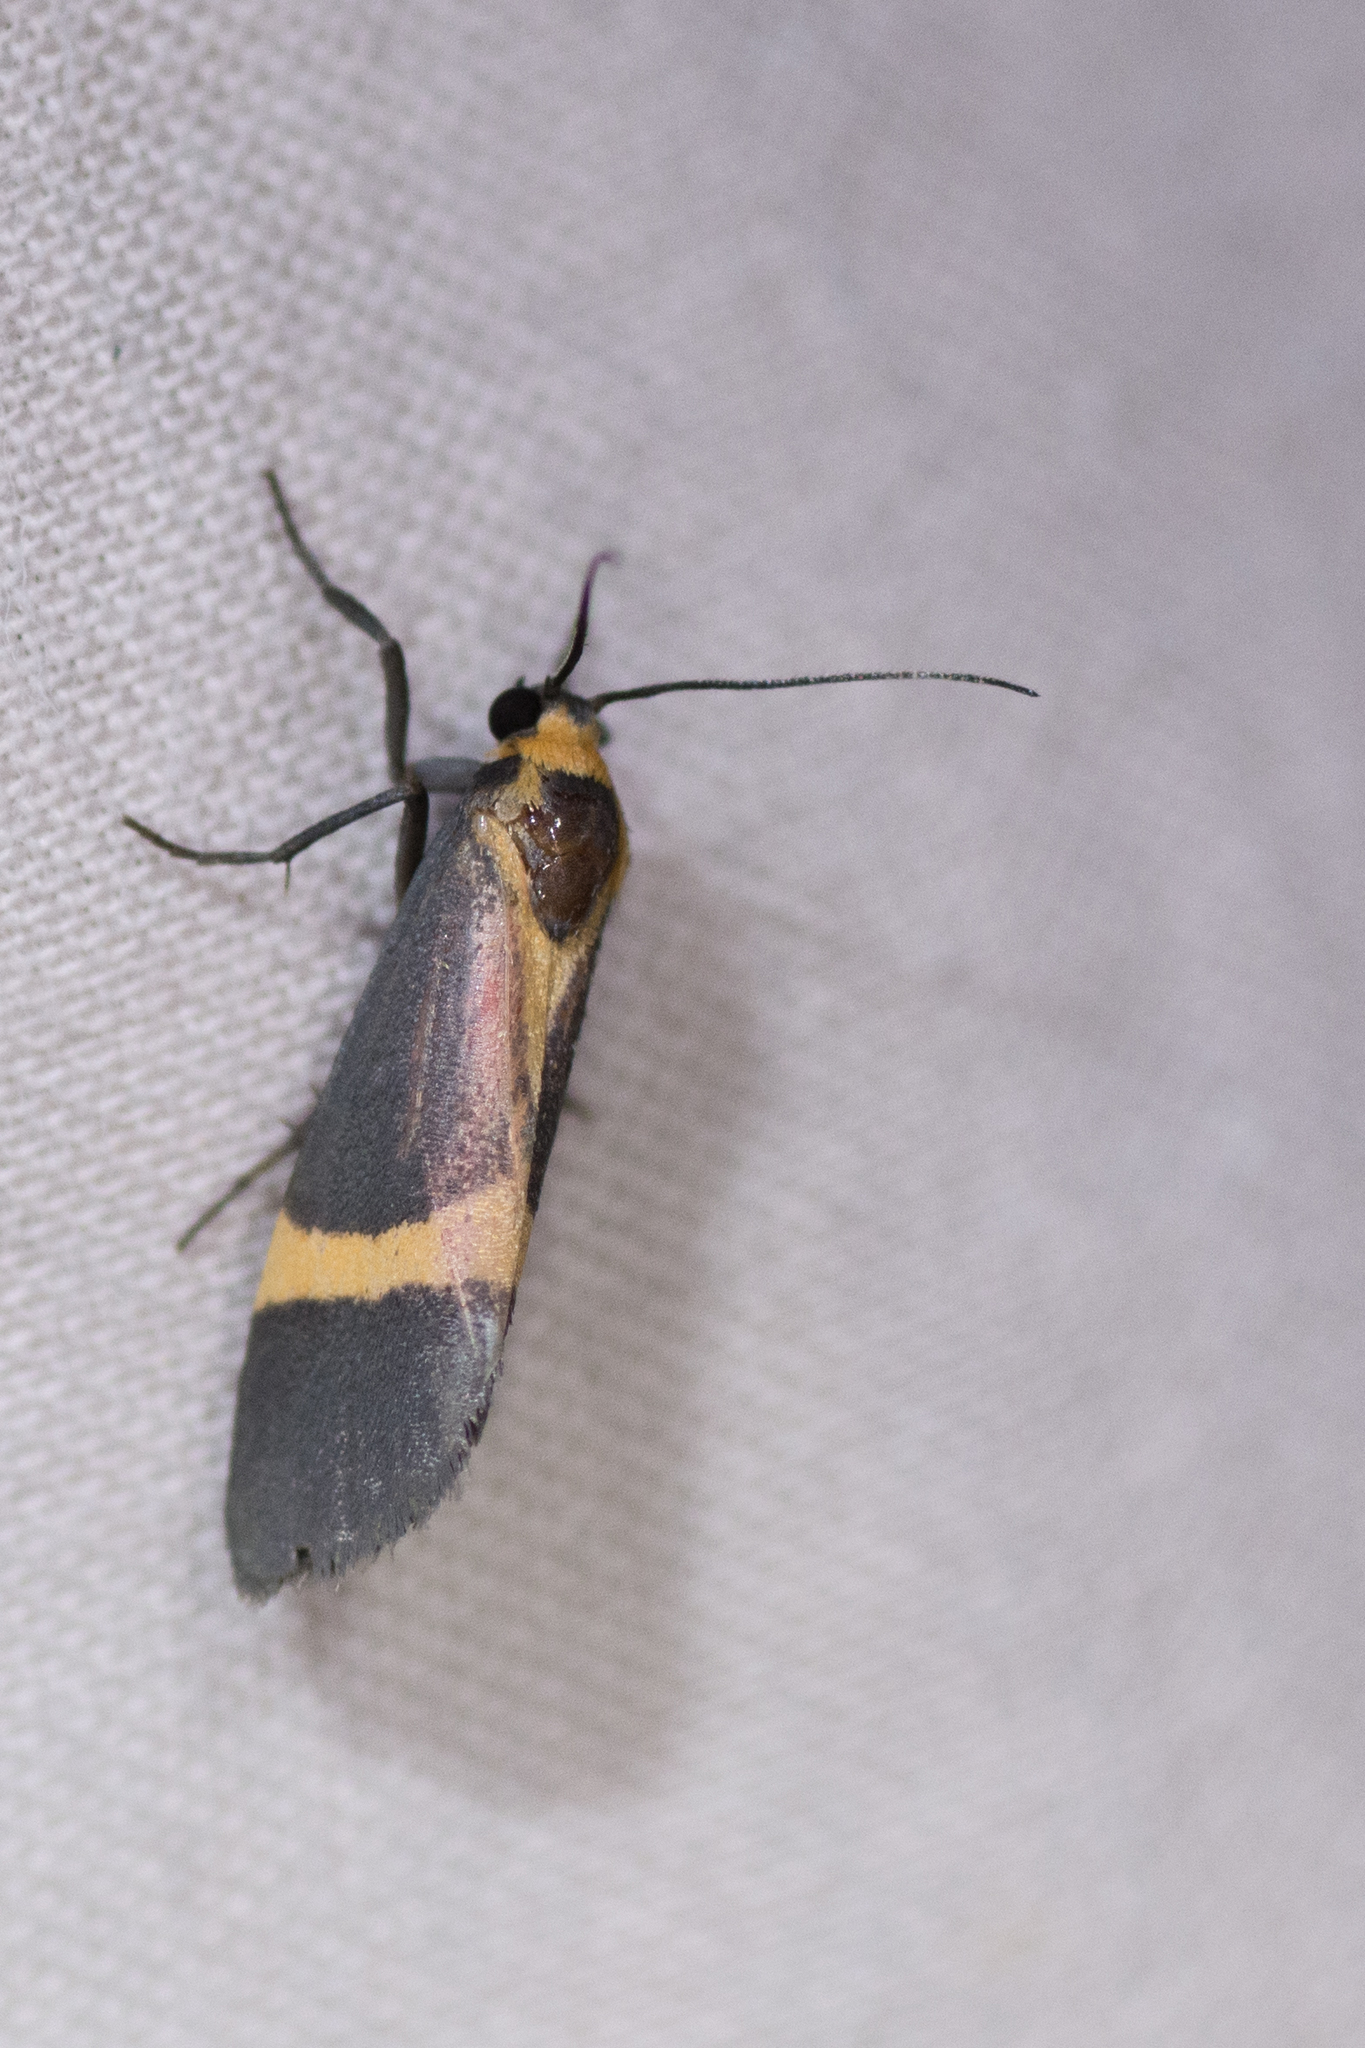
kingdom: Animalia
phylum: Arthropoda
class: Insecta
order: Lepidoptera
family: Erebidae
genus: Cisthene
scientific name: Cisthene barnesii
